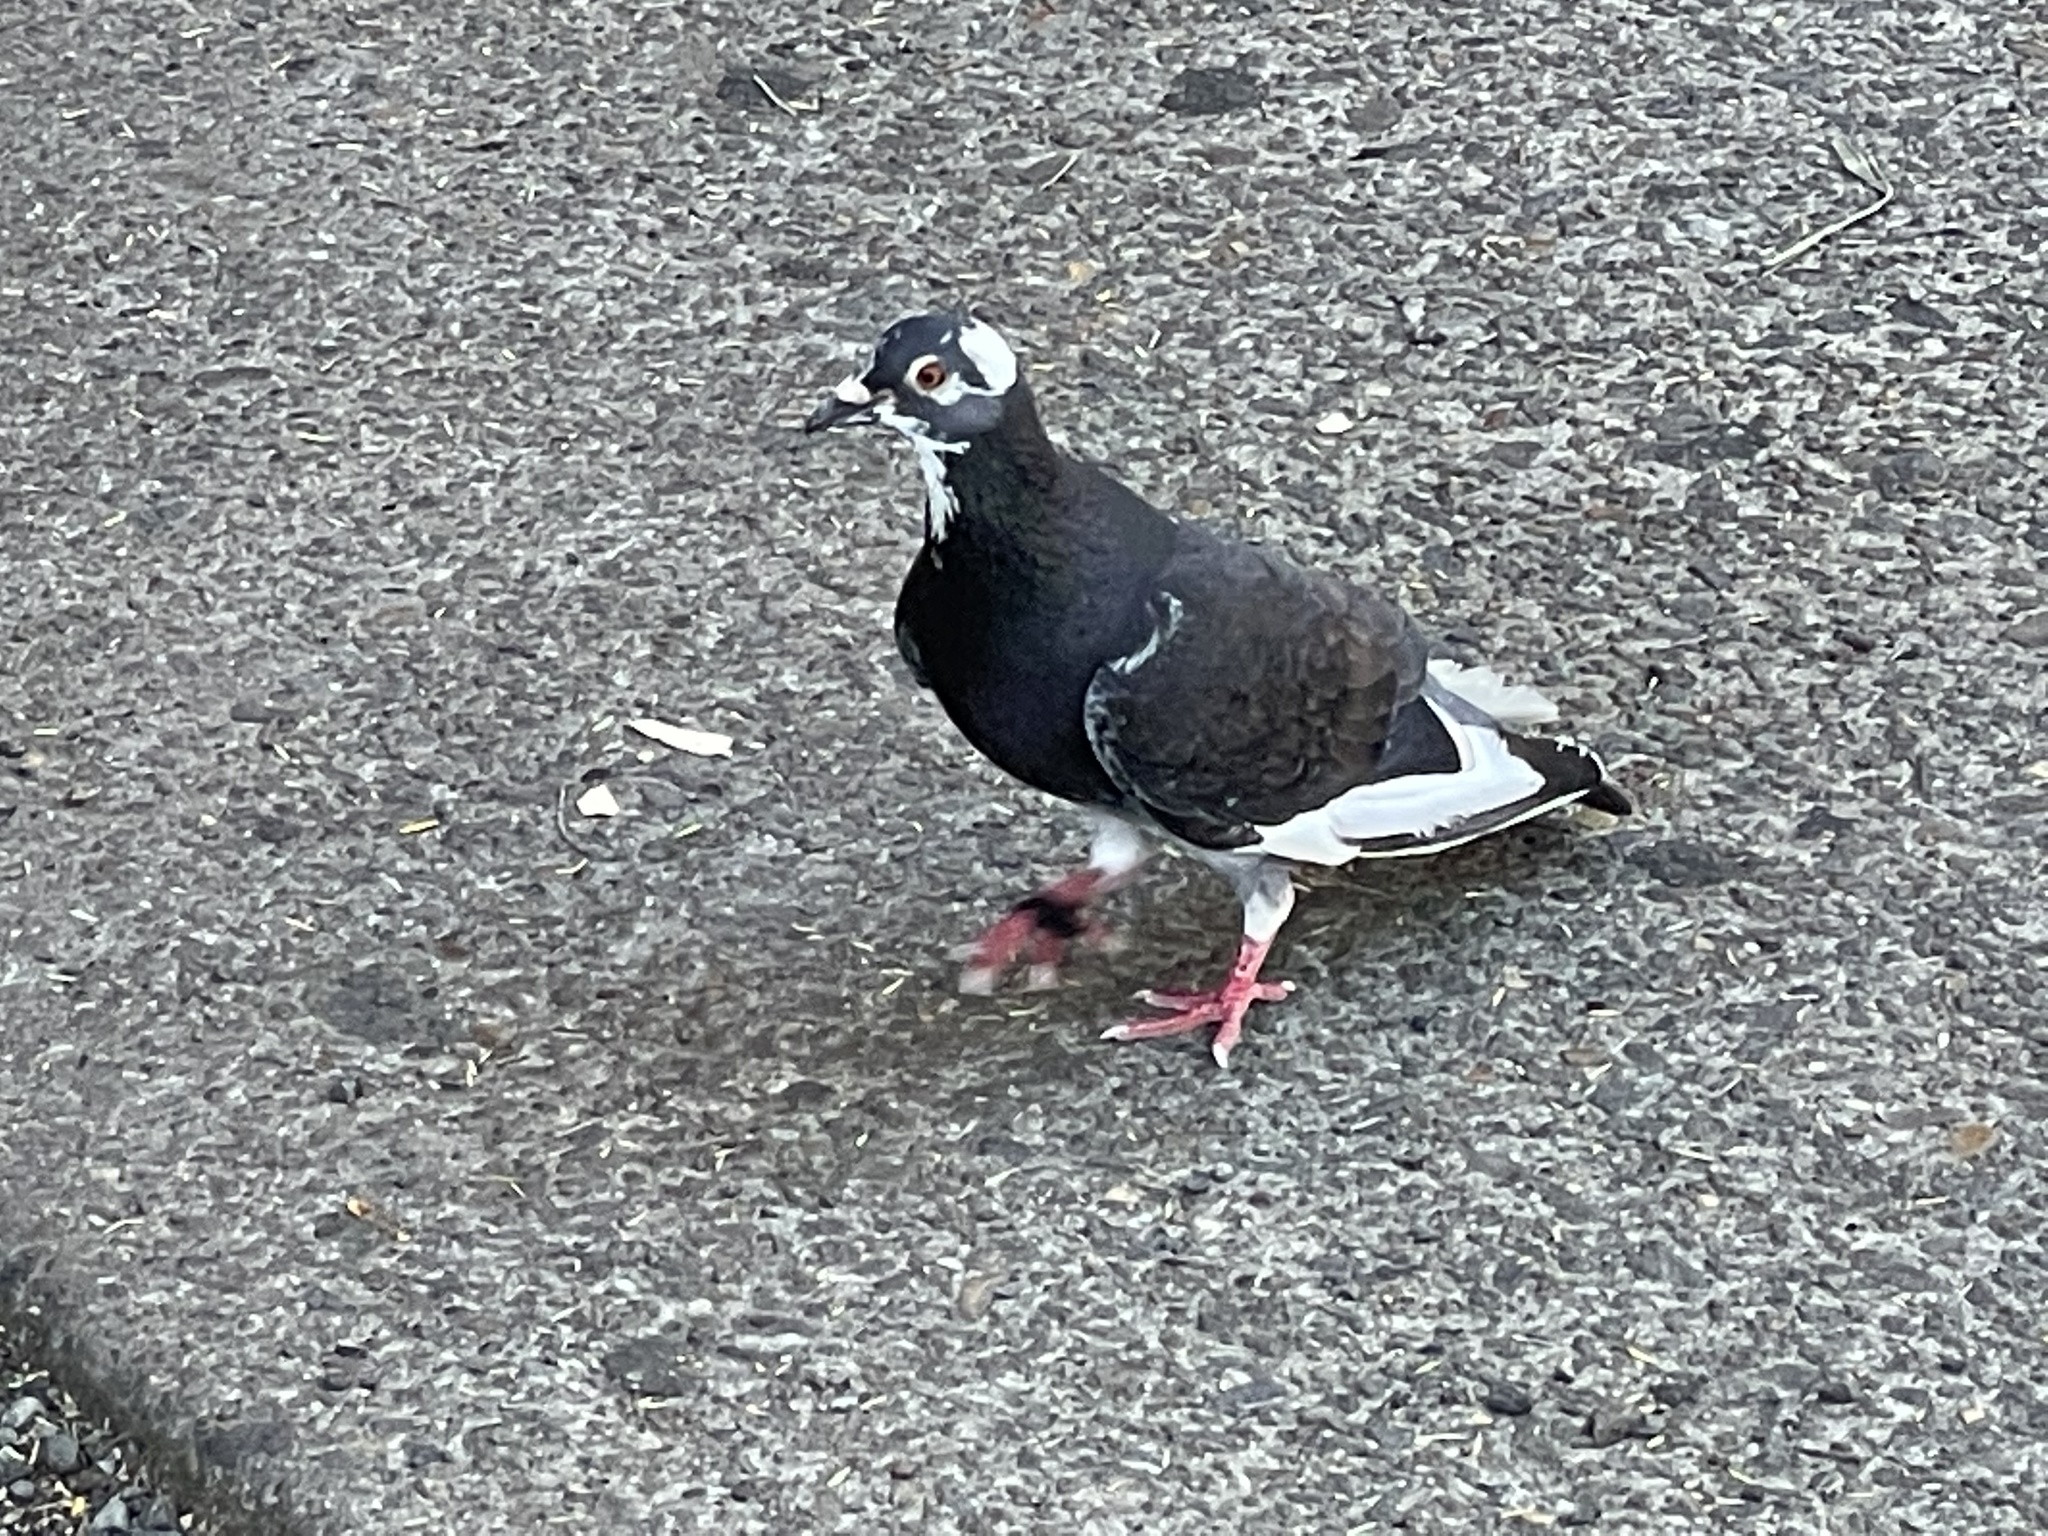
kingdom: Animalia
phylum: Chordata
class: Aves
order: Columbiformes
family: Columbidae
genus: Columba
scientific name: Columba livia
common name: Rock pigeon
